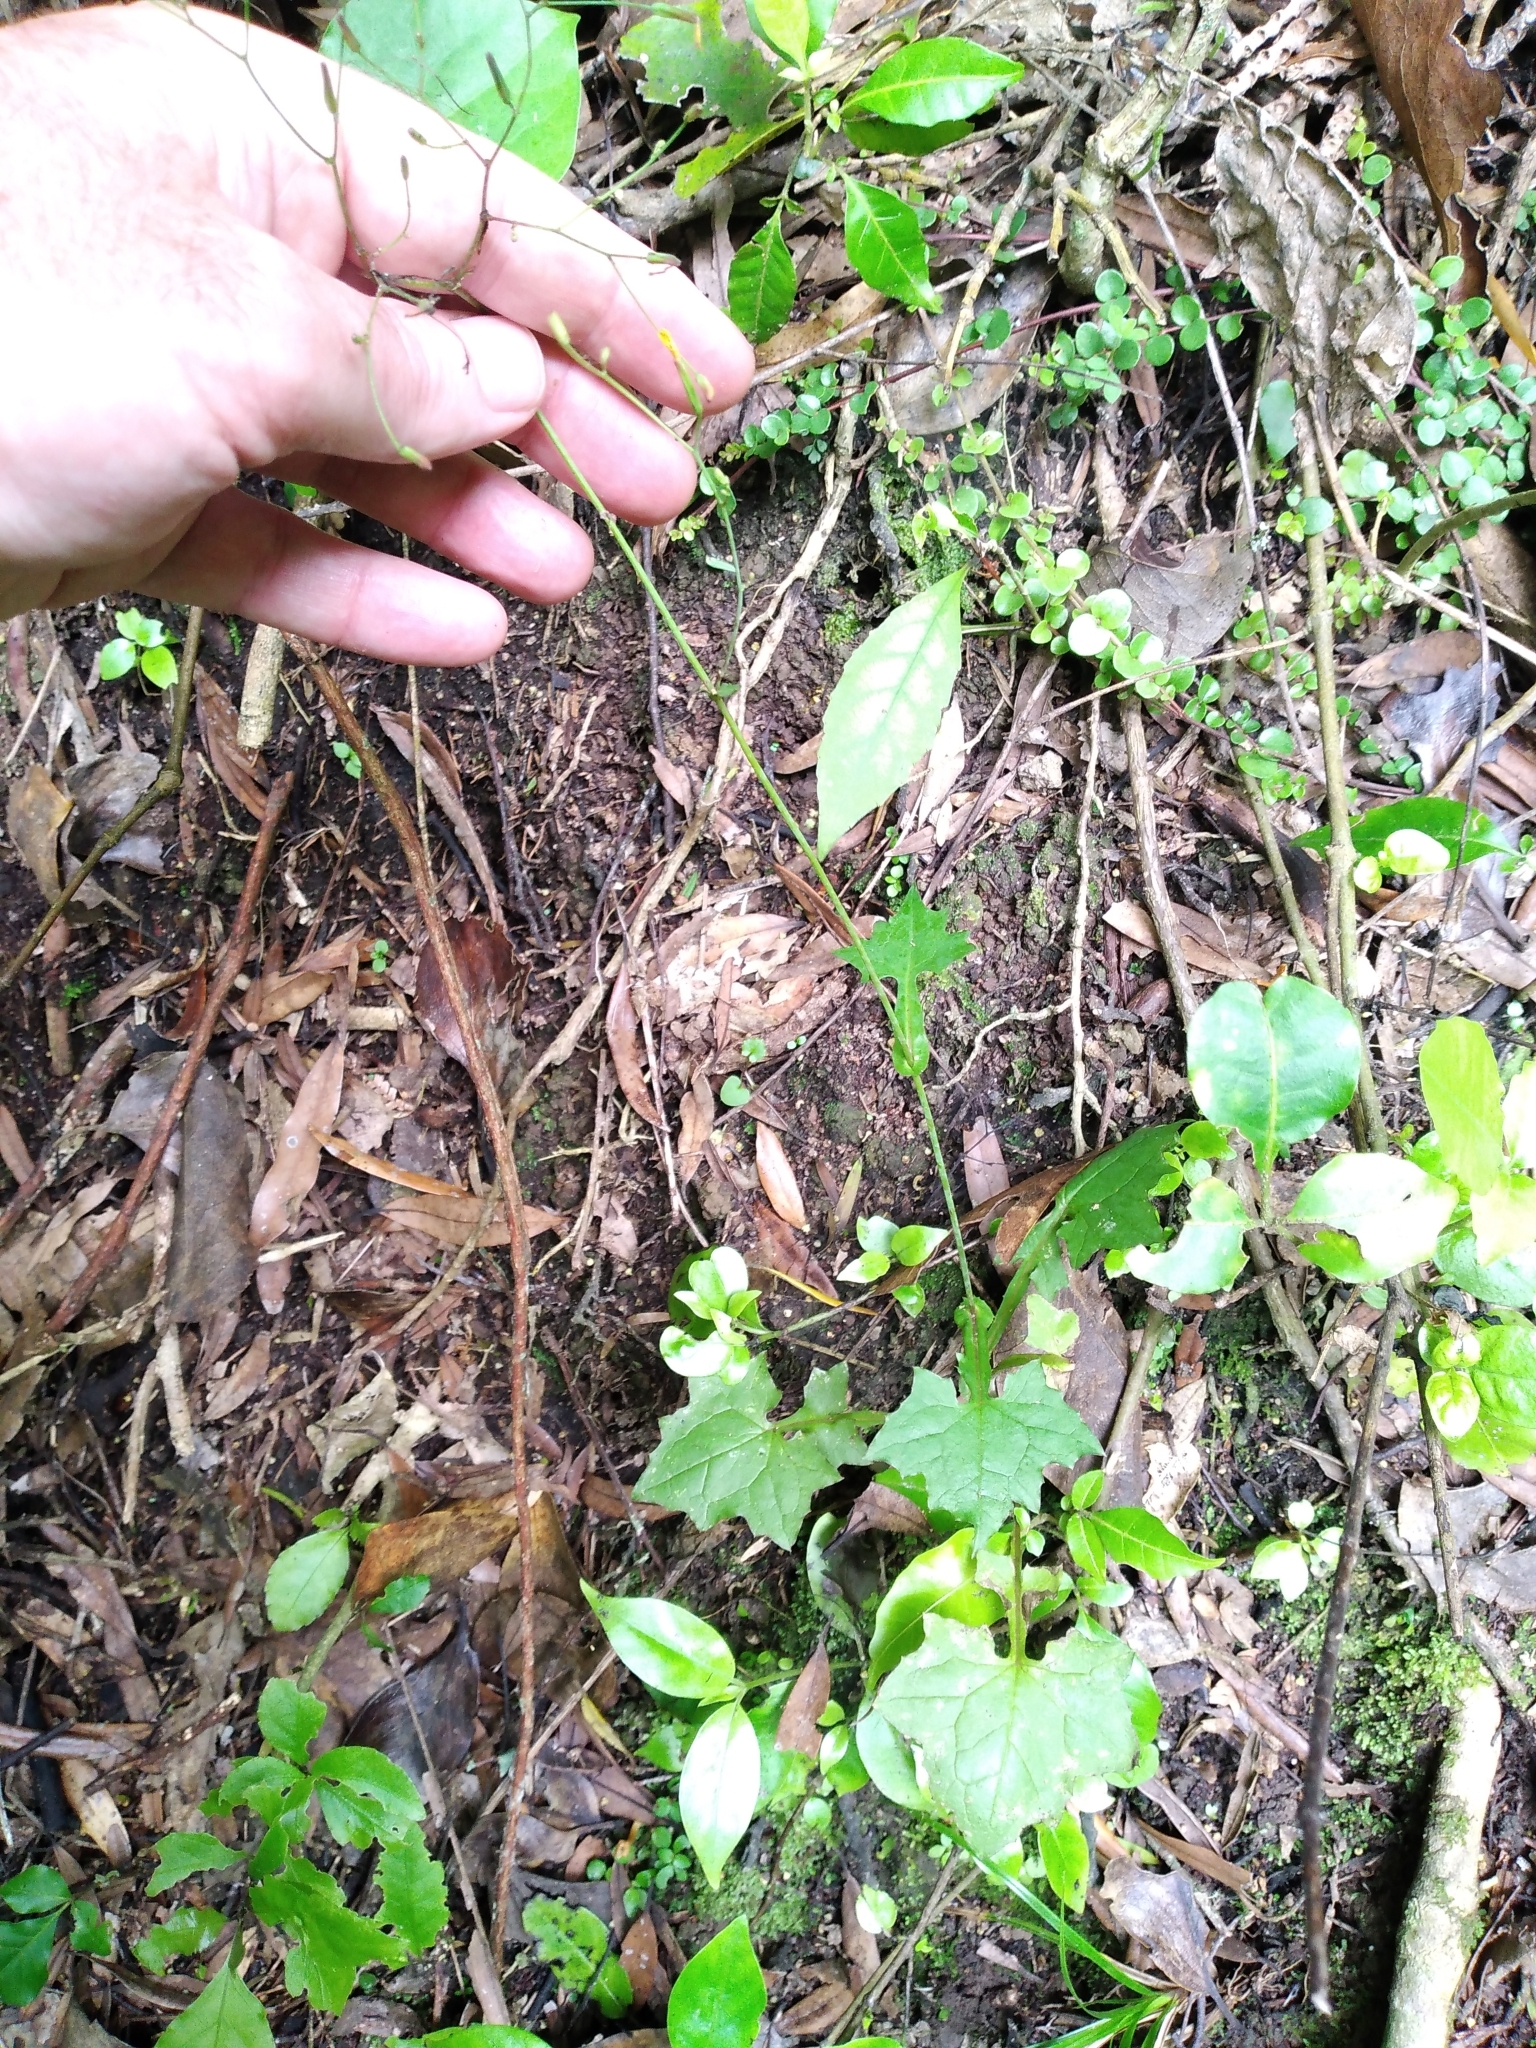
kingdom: Plantae
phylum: Tracheophyta
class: Magnoliopsida
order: Asterales
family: Asteraceae
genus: Mycelis
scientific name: Mycelis muralis
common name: Wall lettuce
